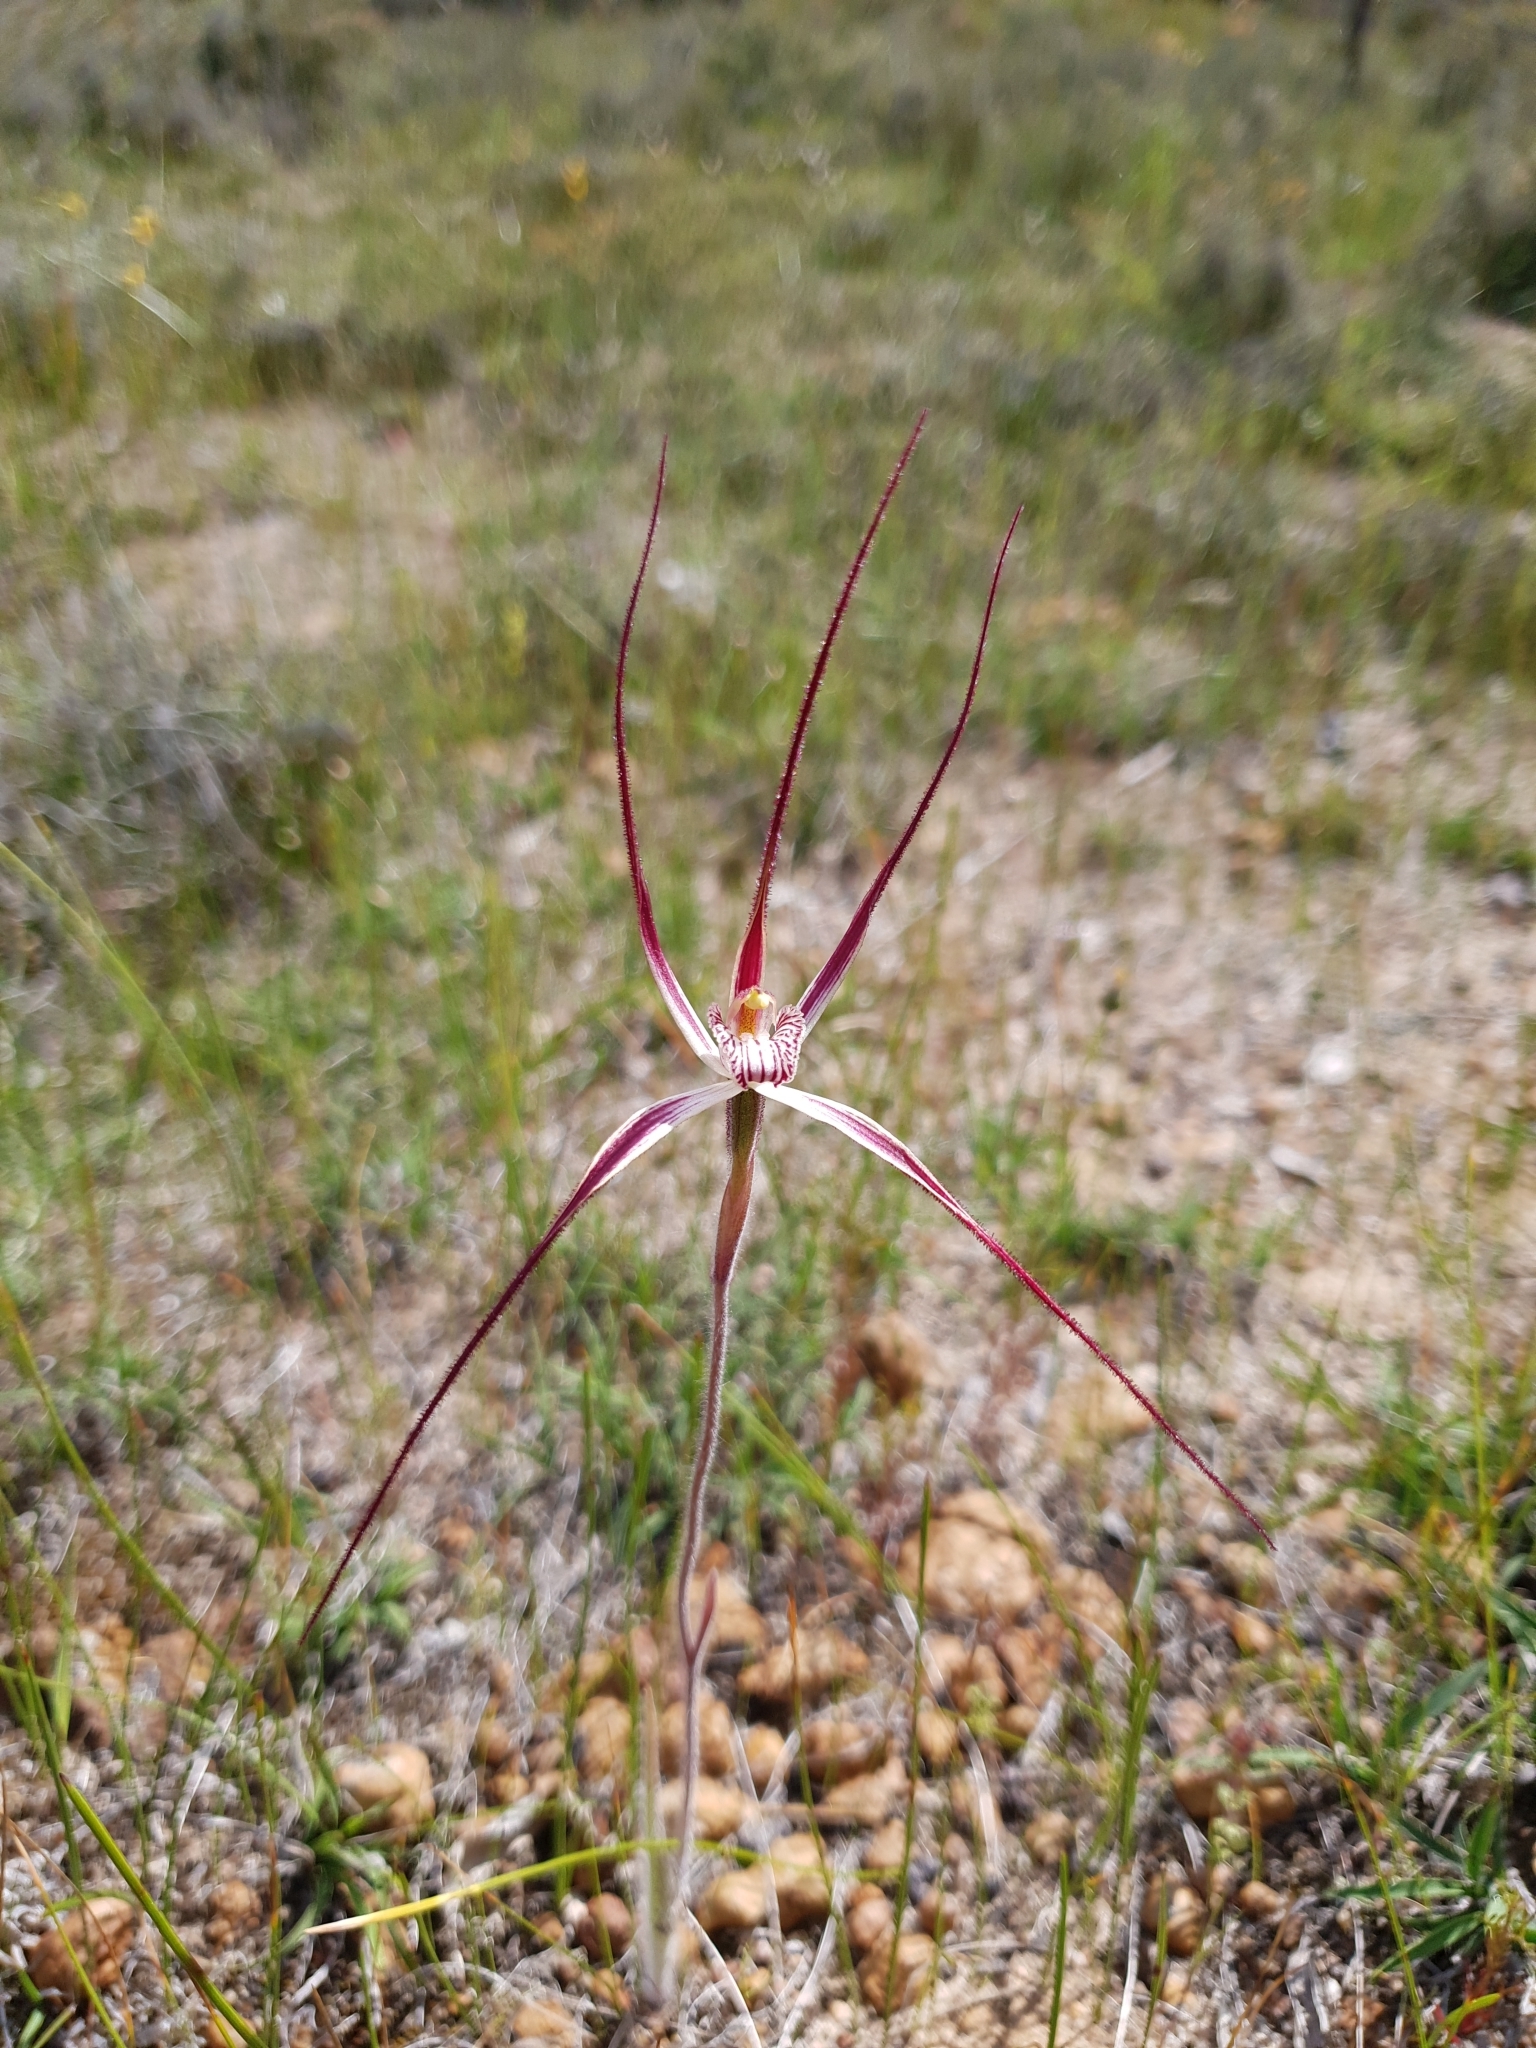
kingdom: Plantae
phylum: Tracheophyta
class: Liliopsida
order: Asparagales
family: Orchidaceae
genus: Caladenia
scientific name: Caladenia polychroma
